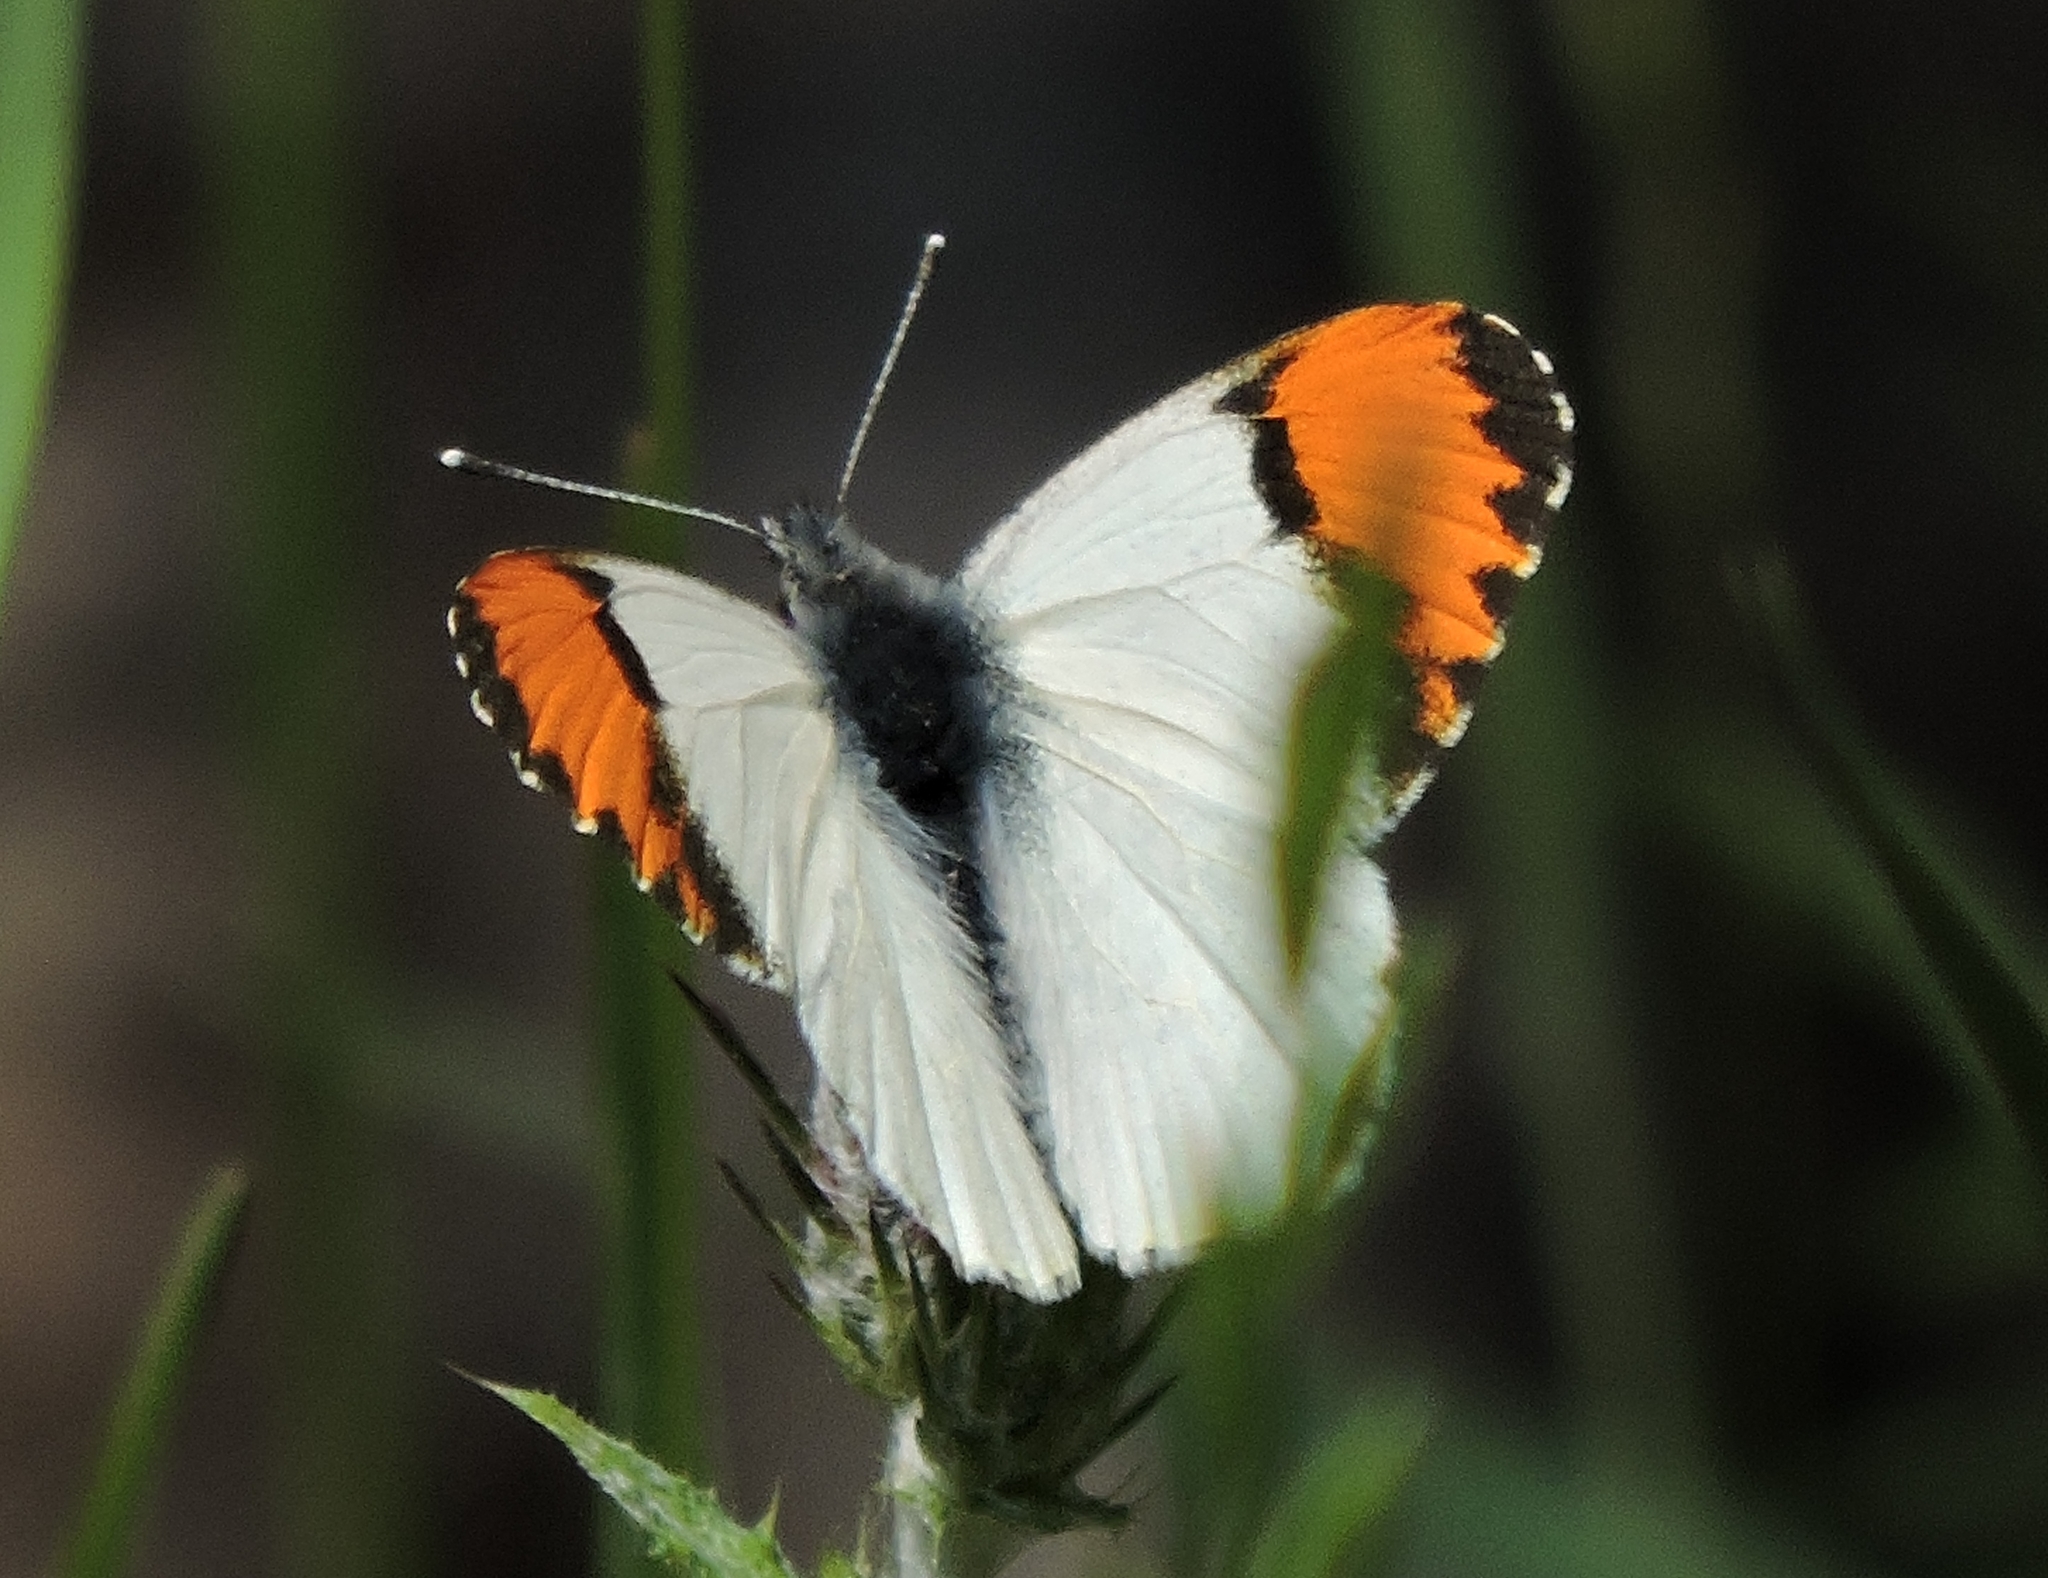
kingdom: Animalia
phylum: Arthropoda
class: Insecta
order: Lepidoptera
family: Pieridae
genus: Anthocharis
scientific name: Anthocharis sara
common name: Sara's orangetip
